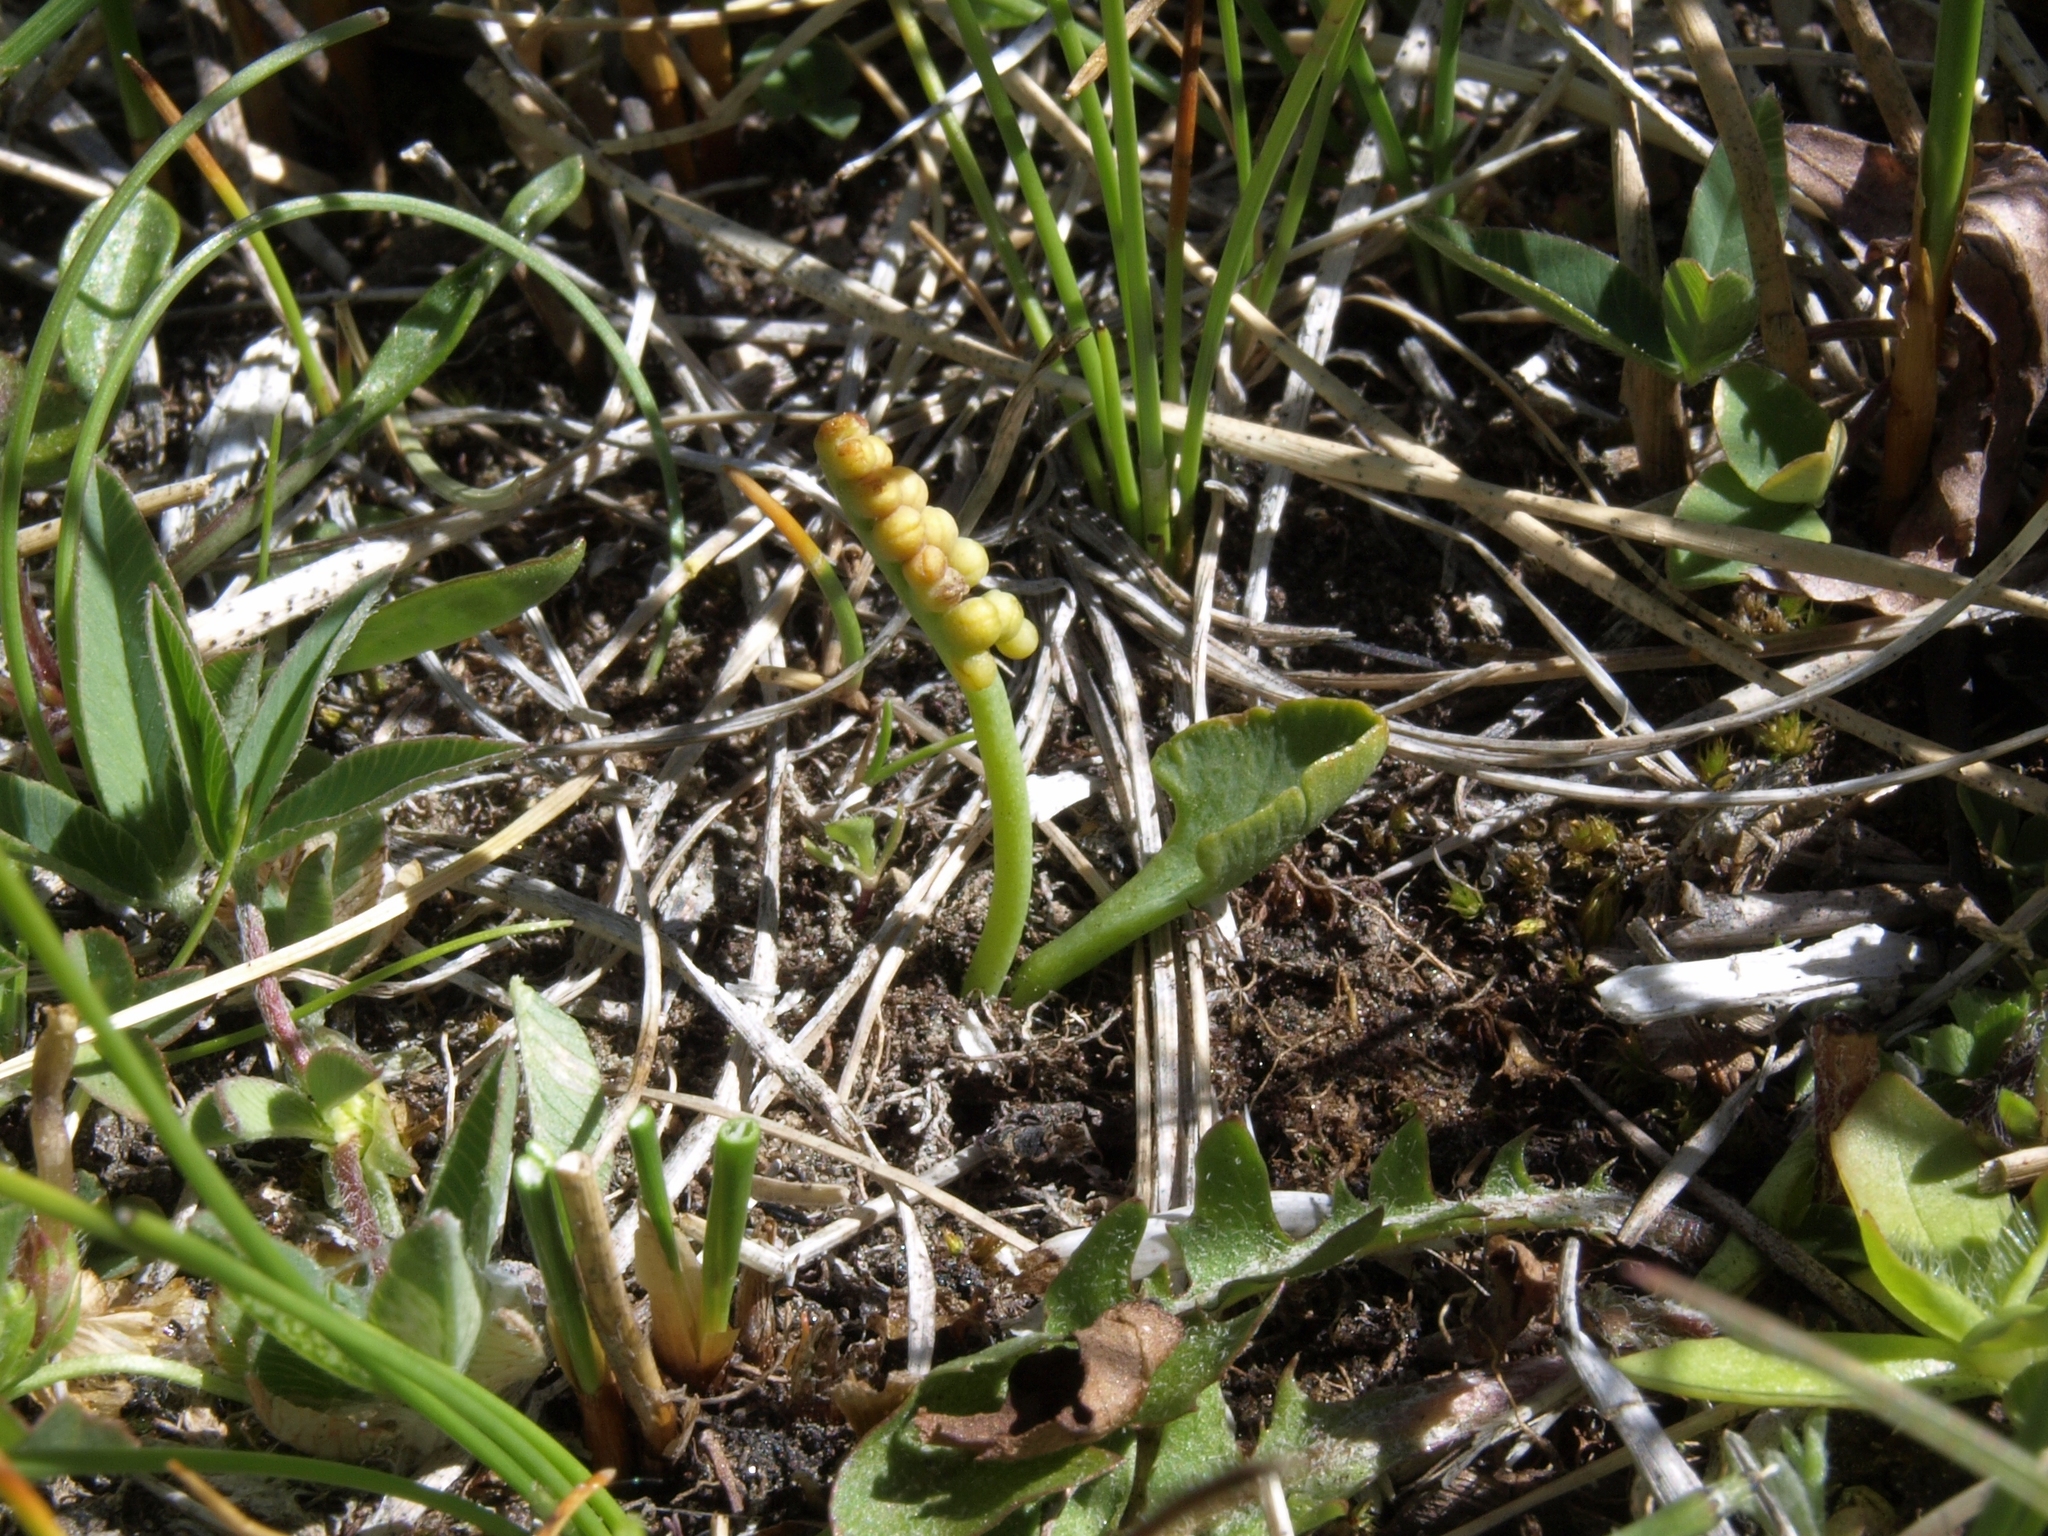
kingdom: Plantae
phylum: Tracheophyta
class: Polypodiopsida
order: Ophioglossales
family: Ophioglossaceae
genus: Botrychium
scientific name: Botrychium simplex
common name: Least moonwort
